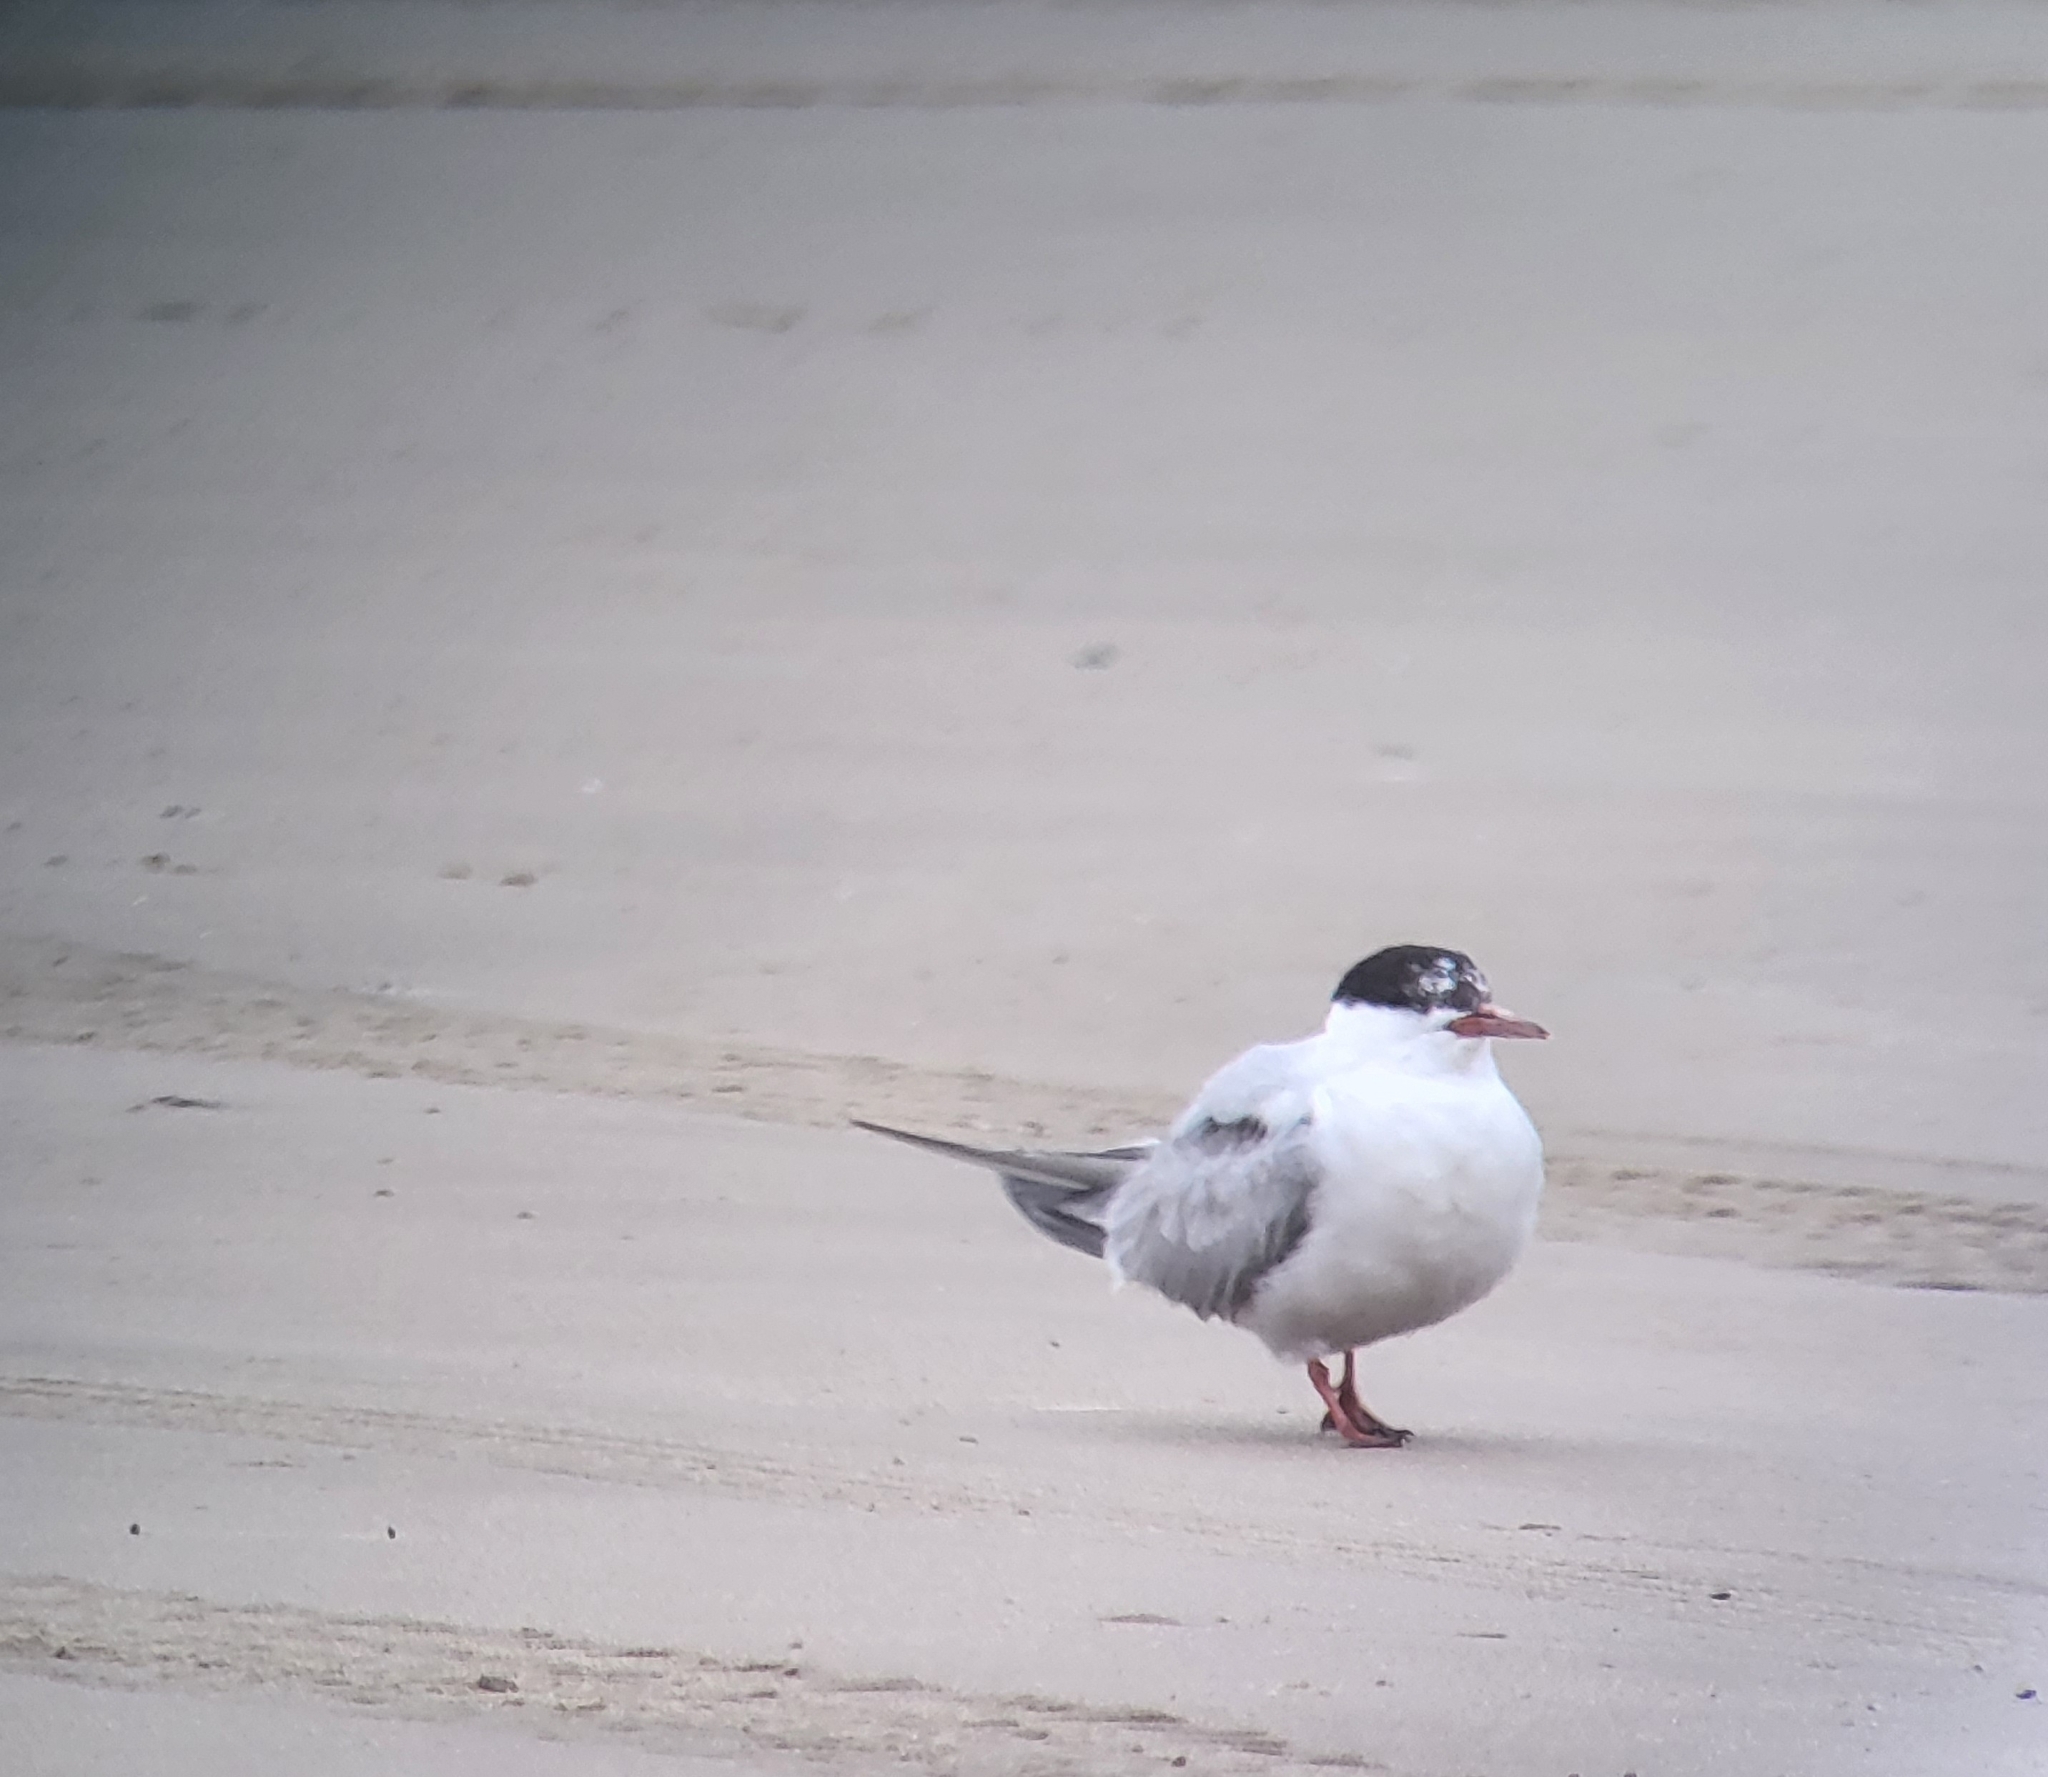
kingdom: Animalia
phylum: Chordata
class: Aves
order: Charadriiformes
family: Laridae
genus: Sterna
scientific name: Sterna hirundo
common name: Common tern
